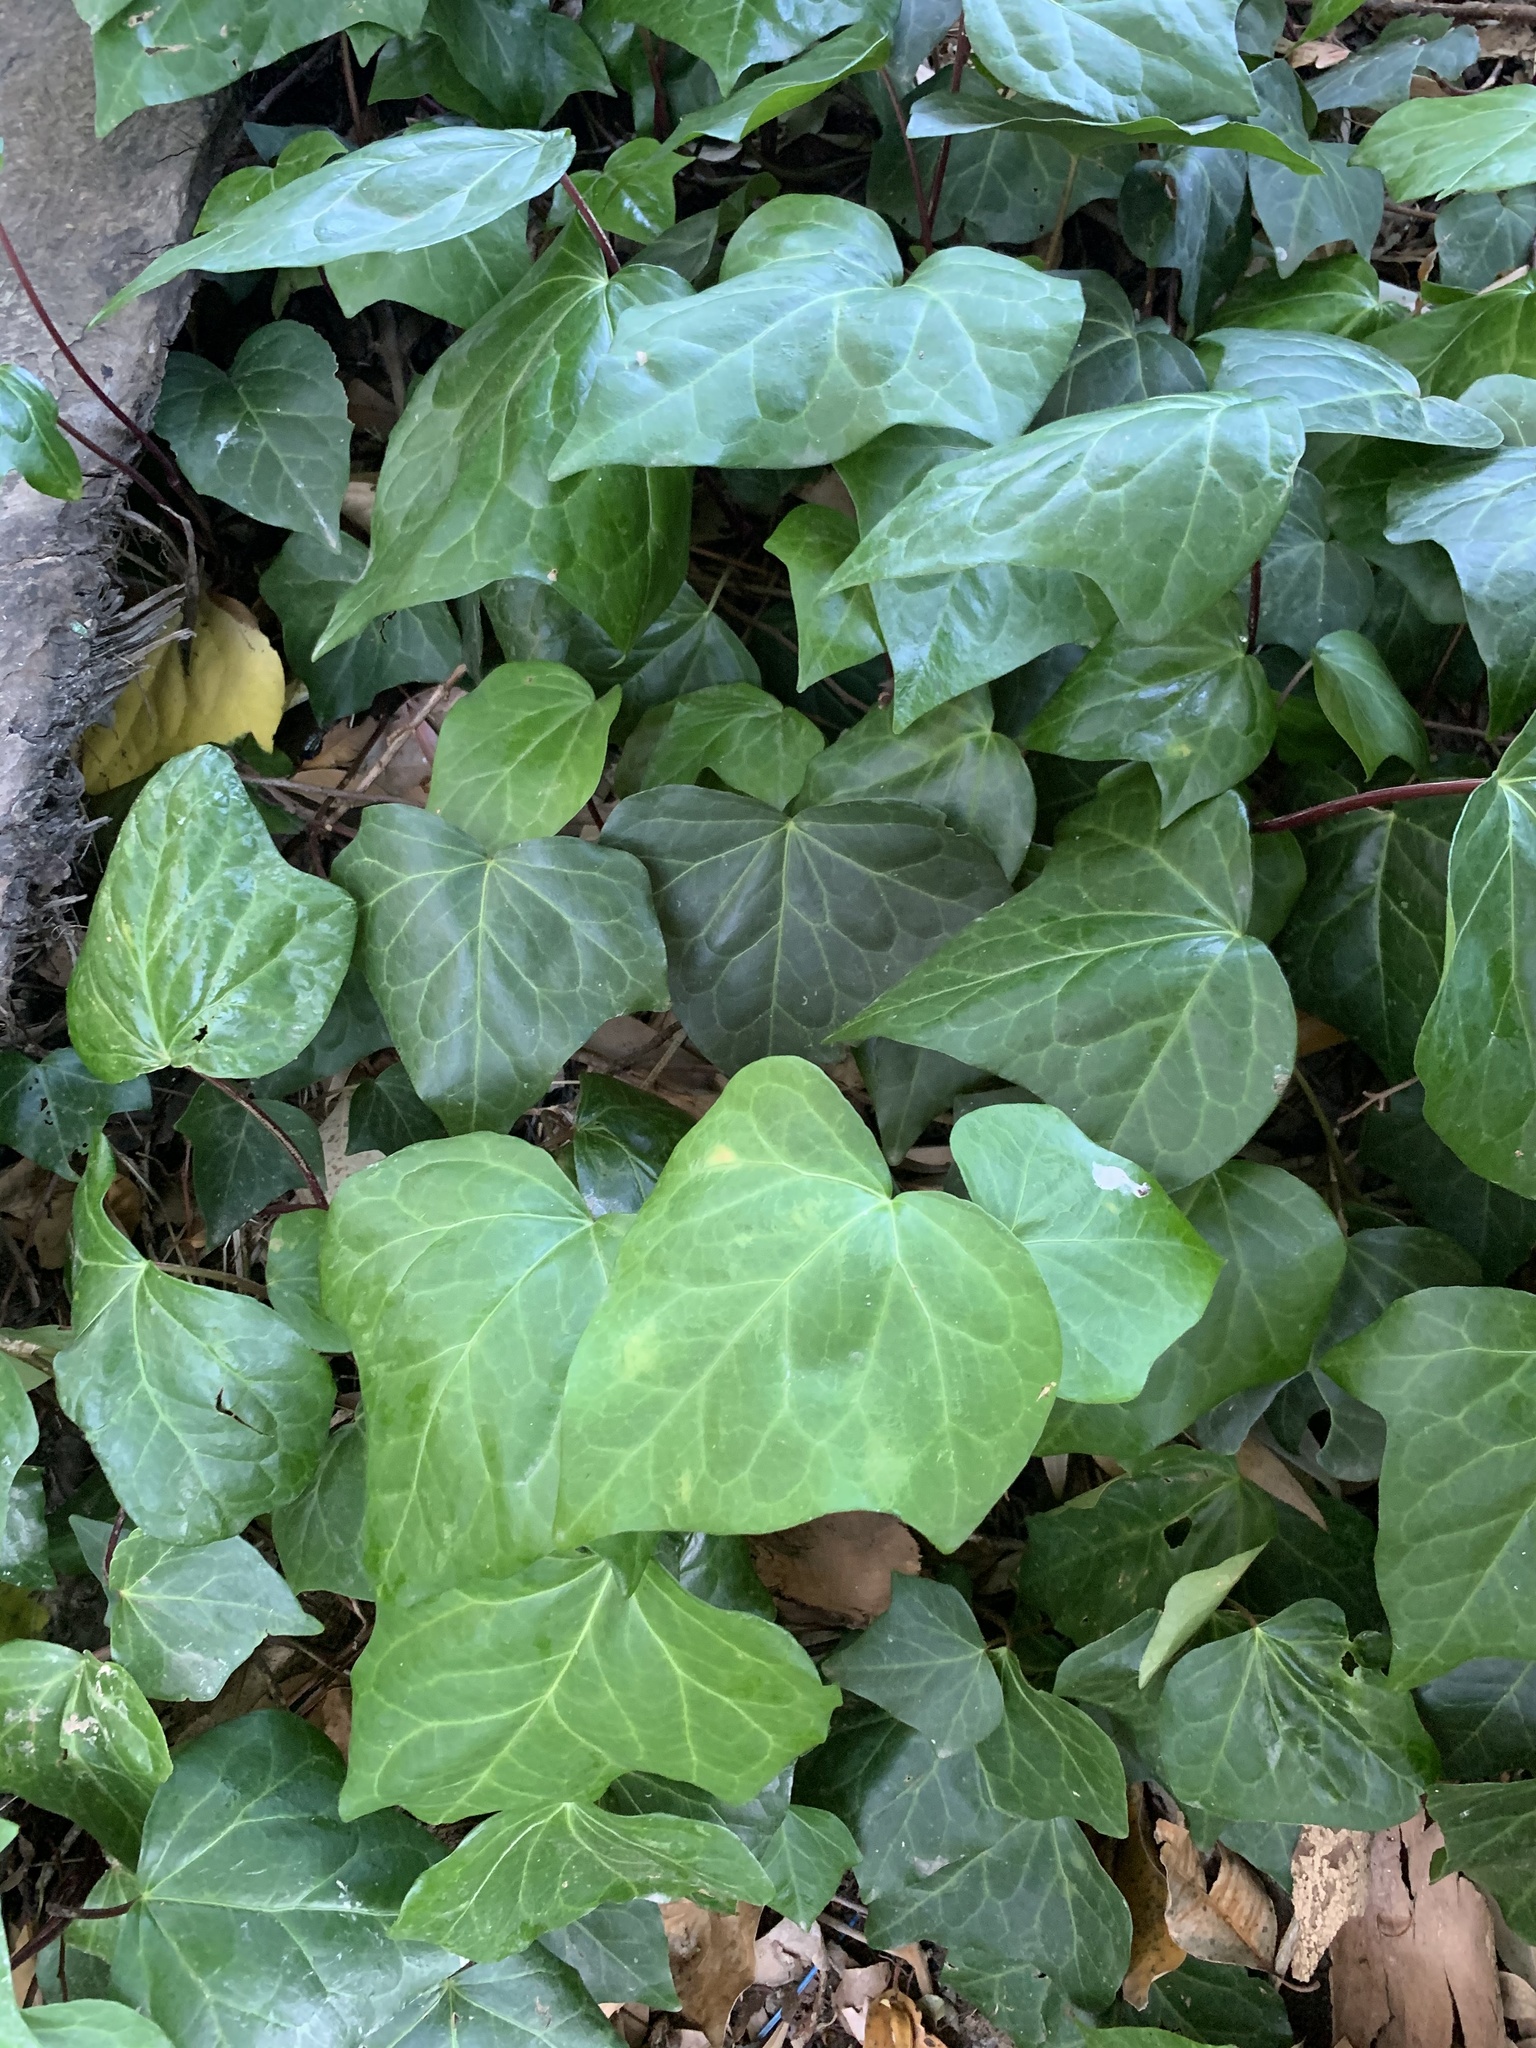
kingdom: Plantae
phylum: Tracheophyta
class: Magnoliopsida
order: Apiales
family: Araliaceae
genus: Hedera
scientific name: Hedera canariensis
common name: Madeira ivy
